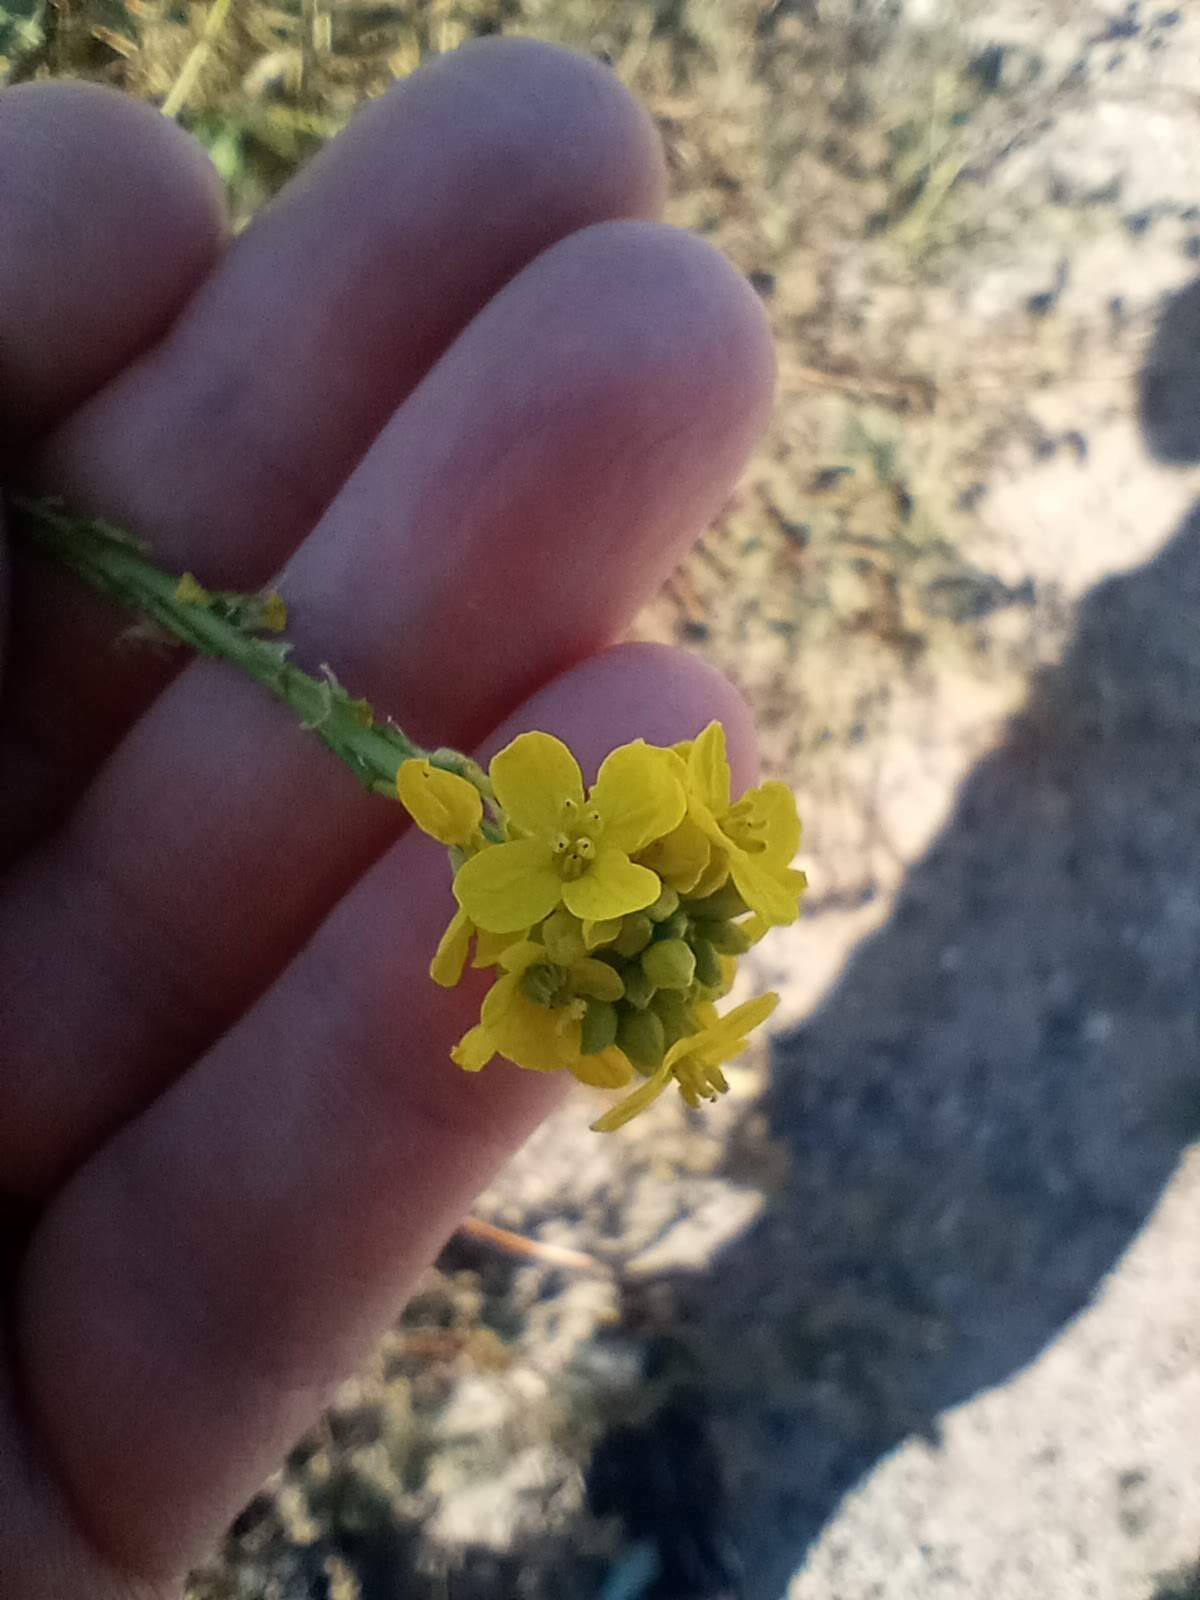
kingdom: Plantae
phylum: Tracheophyta
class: Magnoliopsida
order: Brassicales
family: Brassicaceae
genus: Hirschfeldia
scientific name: Hirschfeldia incana
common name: Hoary mustard
